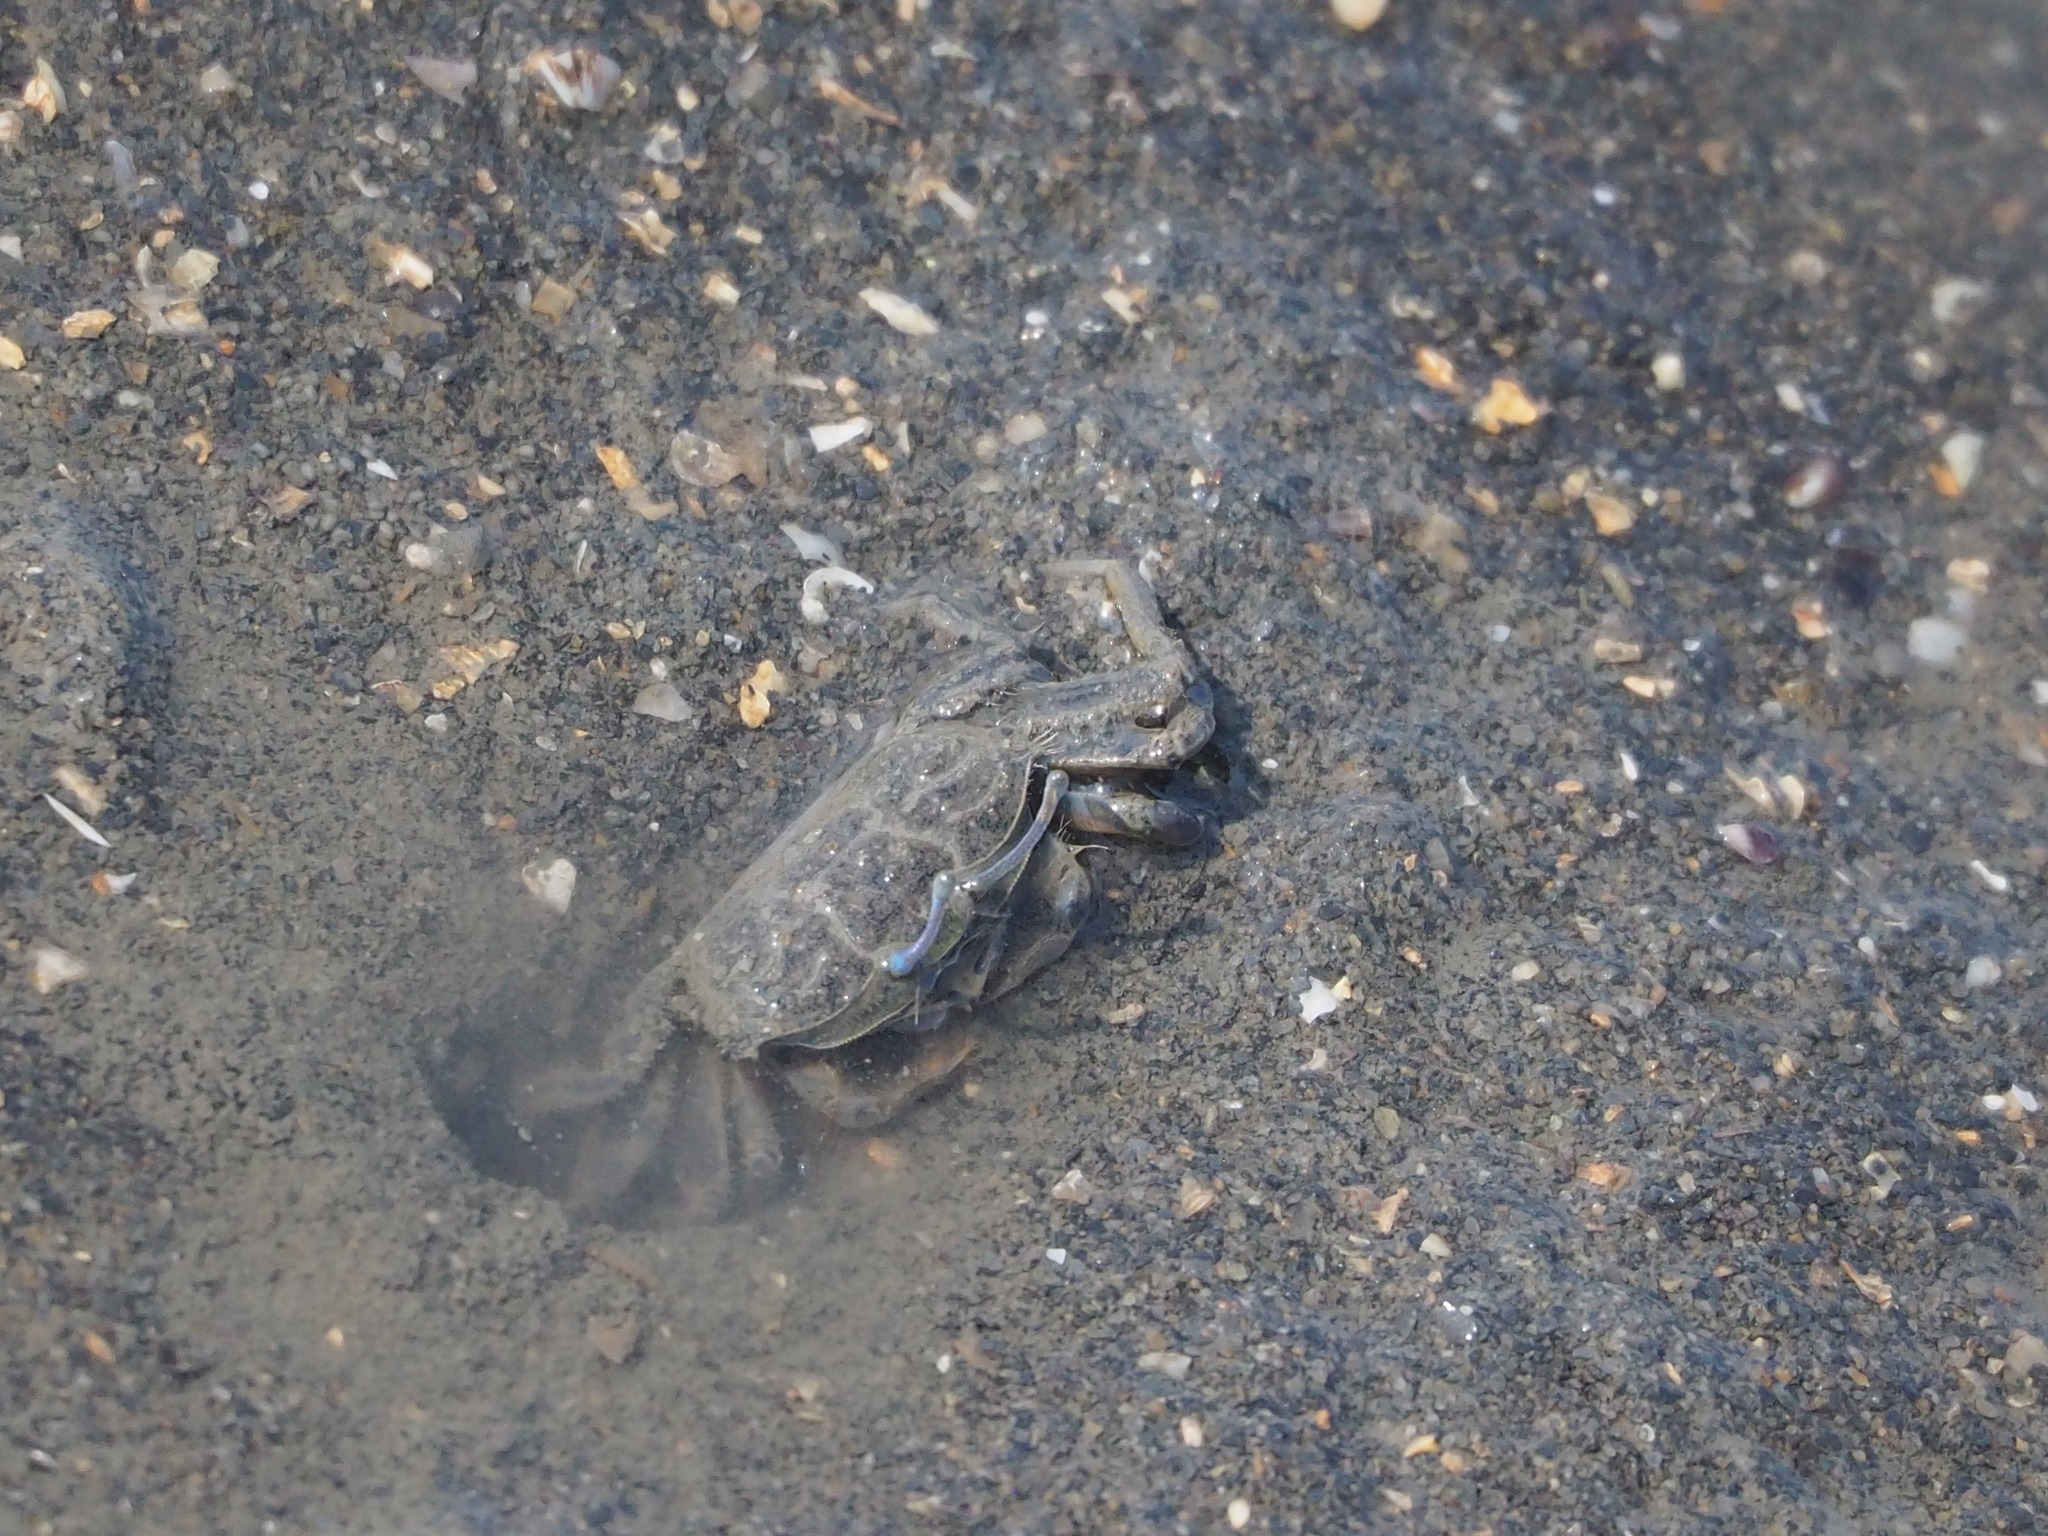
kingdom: Animalia
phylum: Arthropoda
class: Malacostraca
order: Decapoda
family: Macrophthalmidae
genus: Macrophthalmus
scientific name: Macrophthalmus abbreviatus
